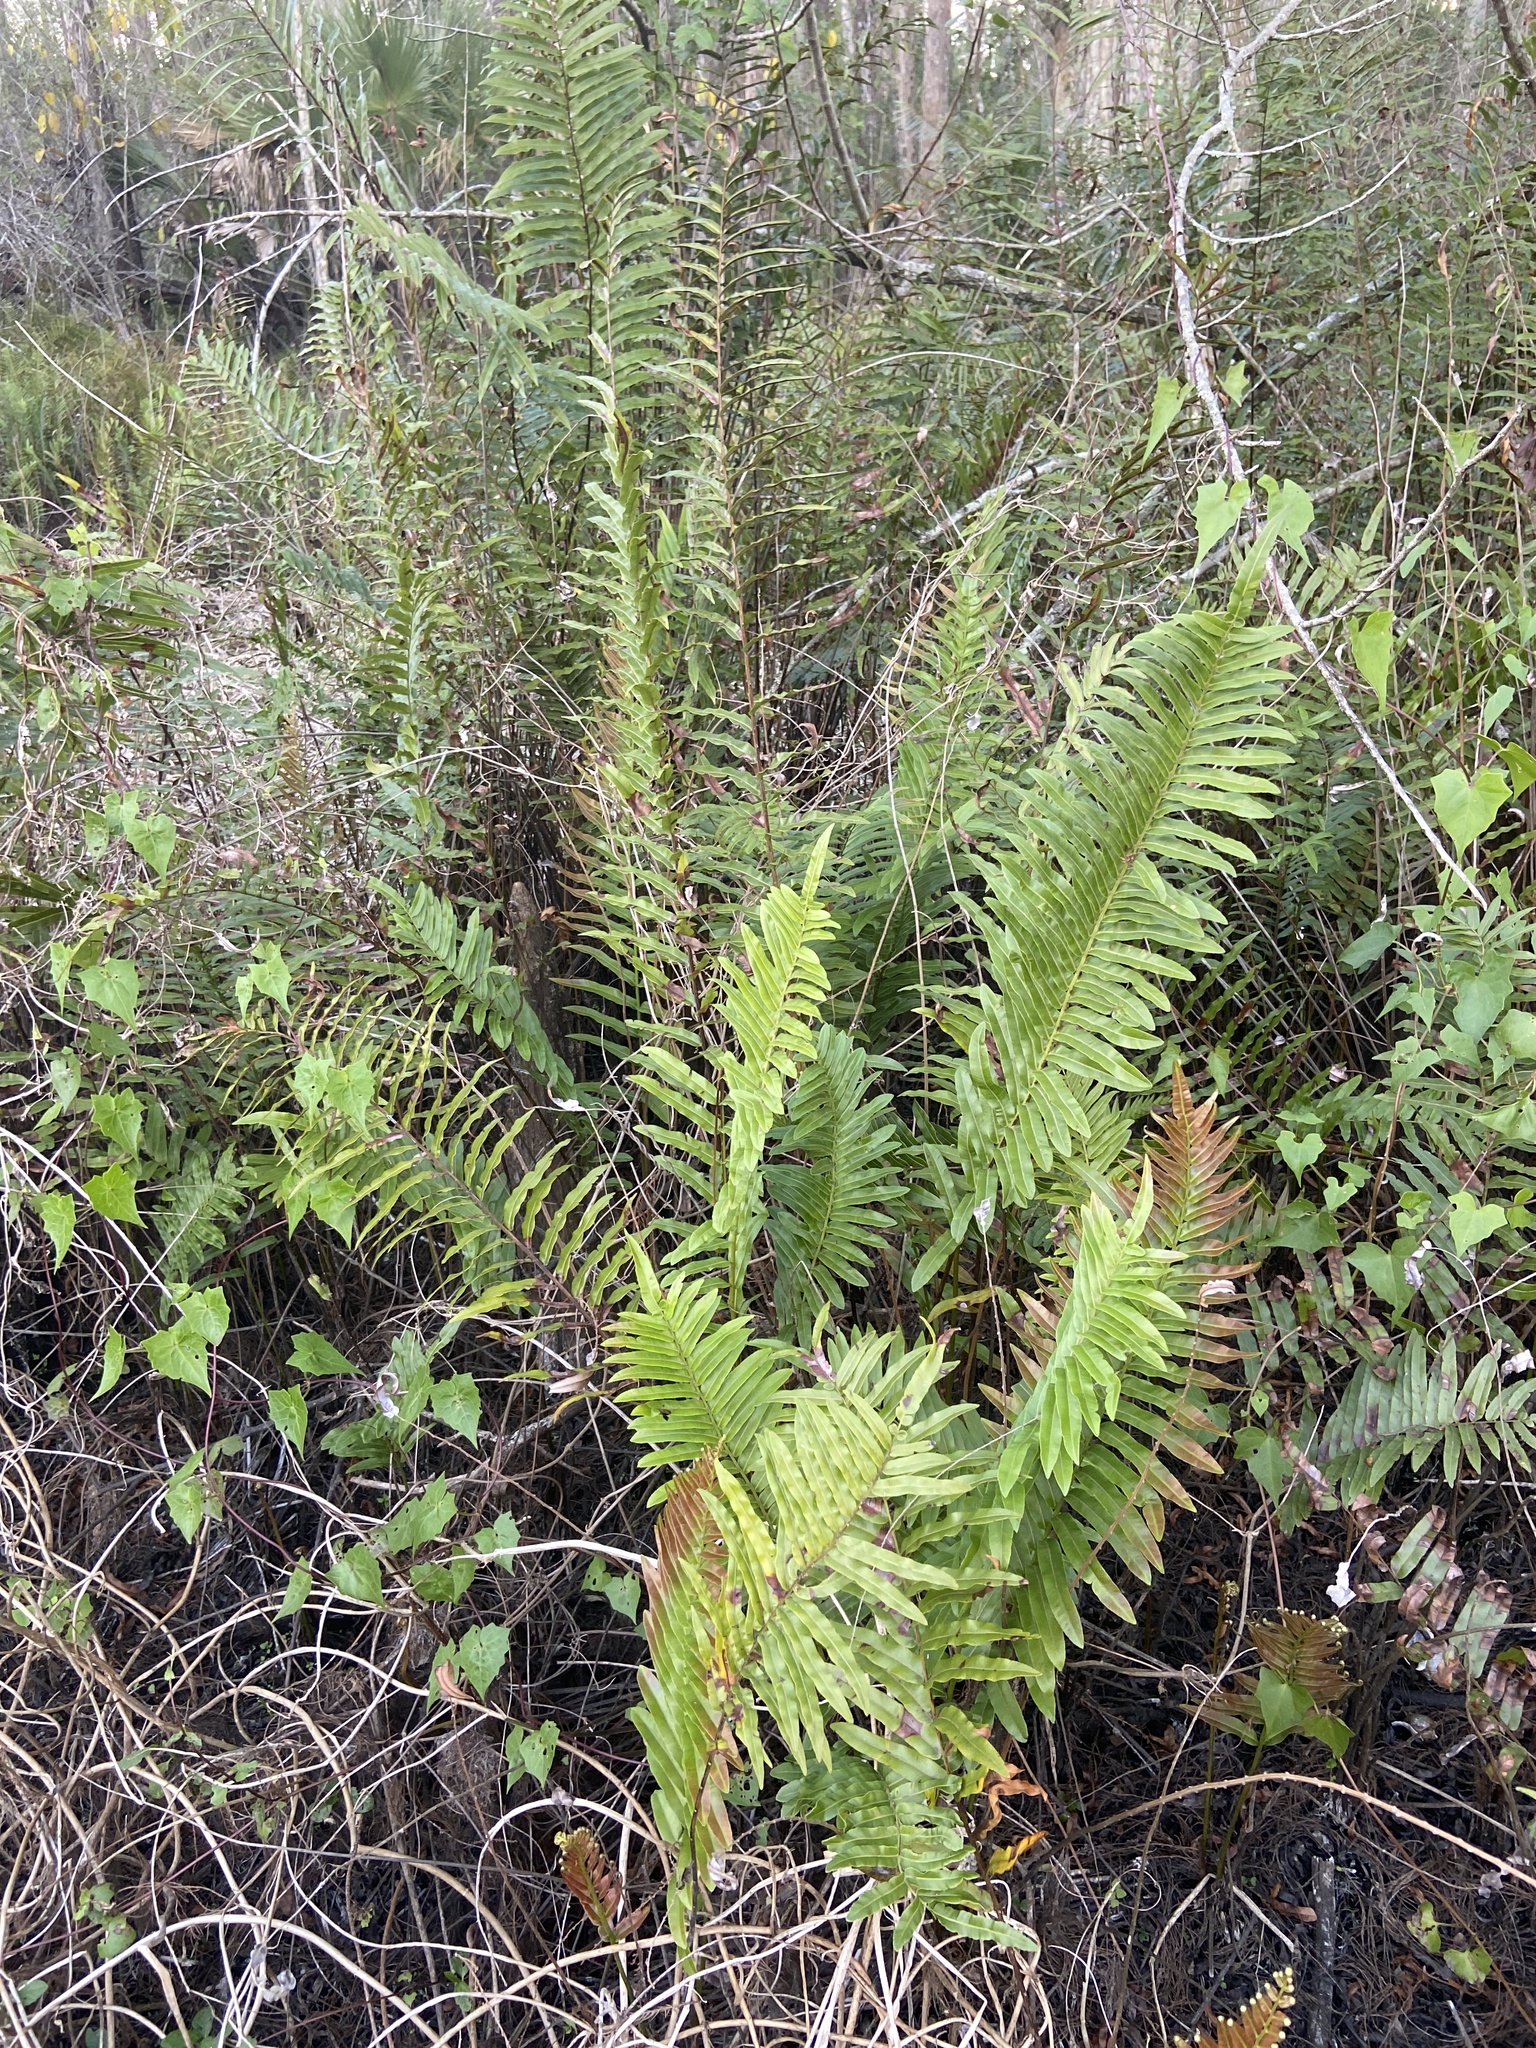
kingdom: Plantae
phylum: Tracheophyta
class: Polypodiopsida
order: Polypodiales
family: Blechnaceae
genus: Telmatoblechnum
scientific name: Telmatoblechnum serrulatum
